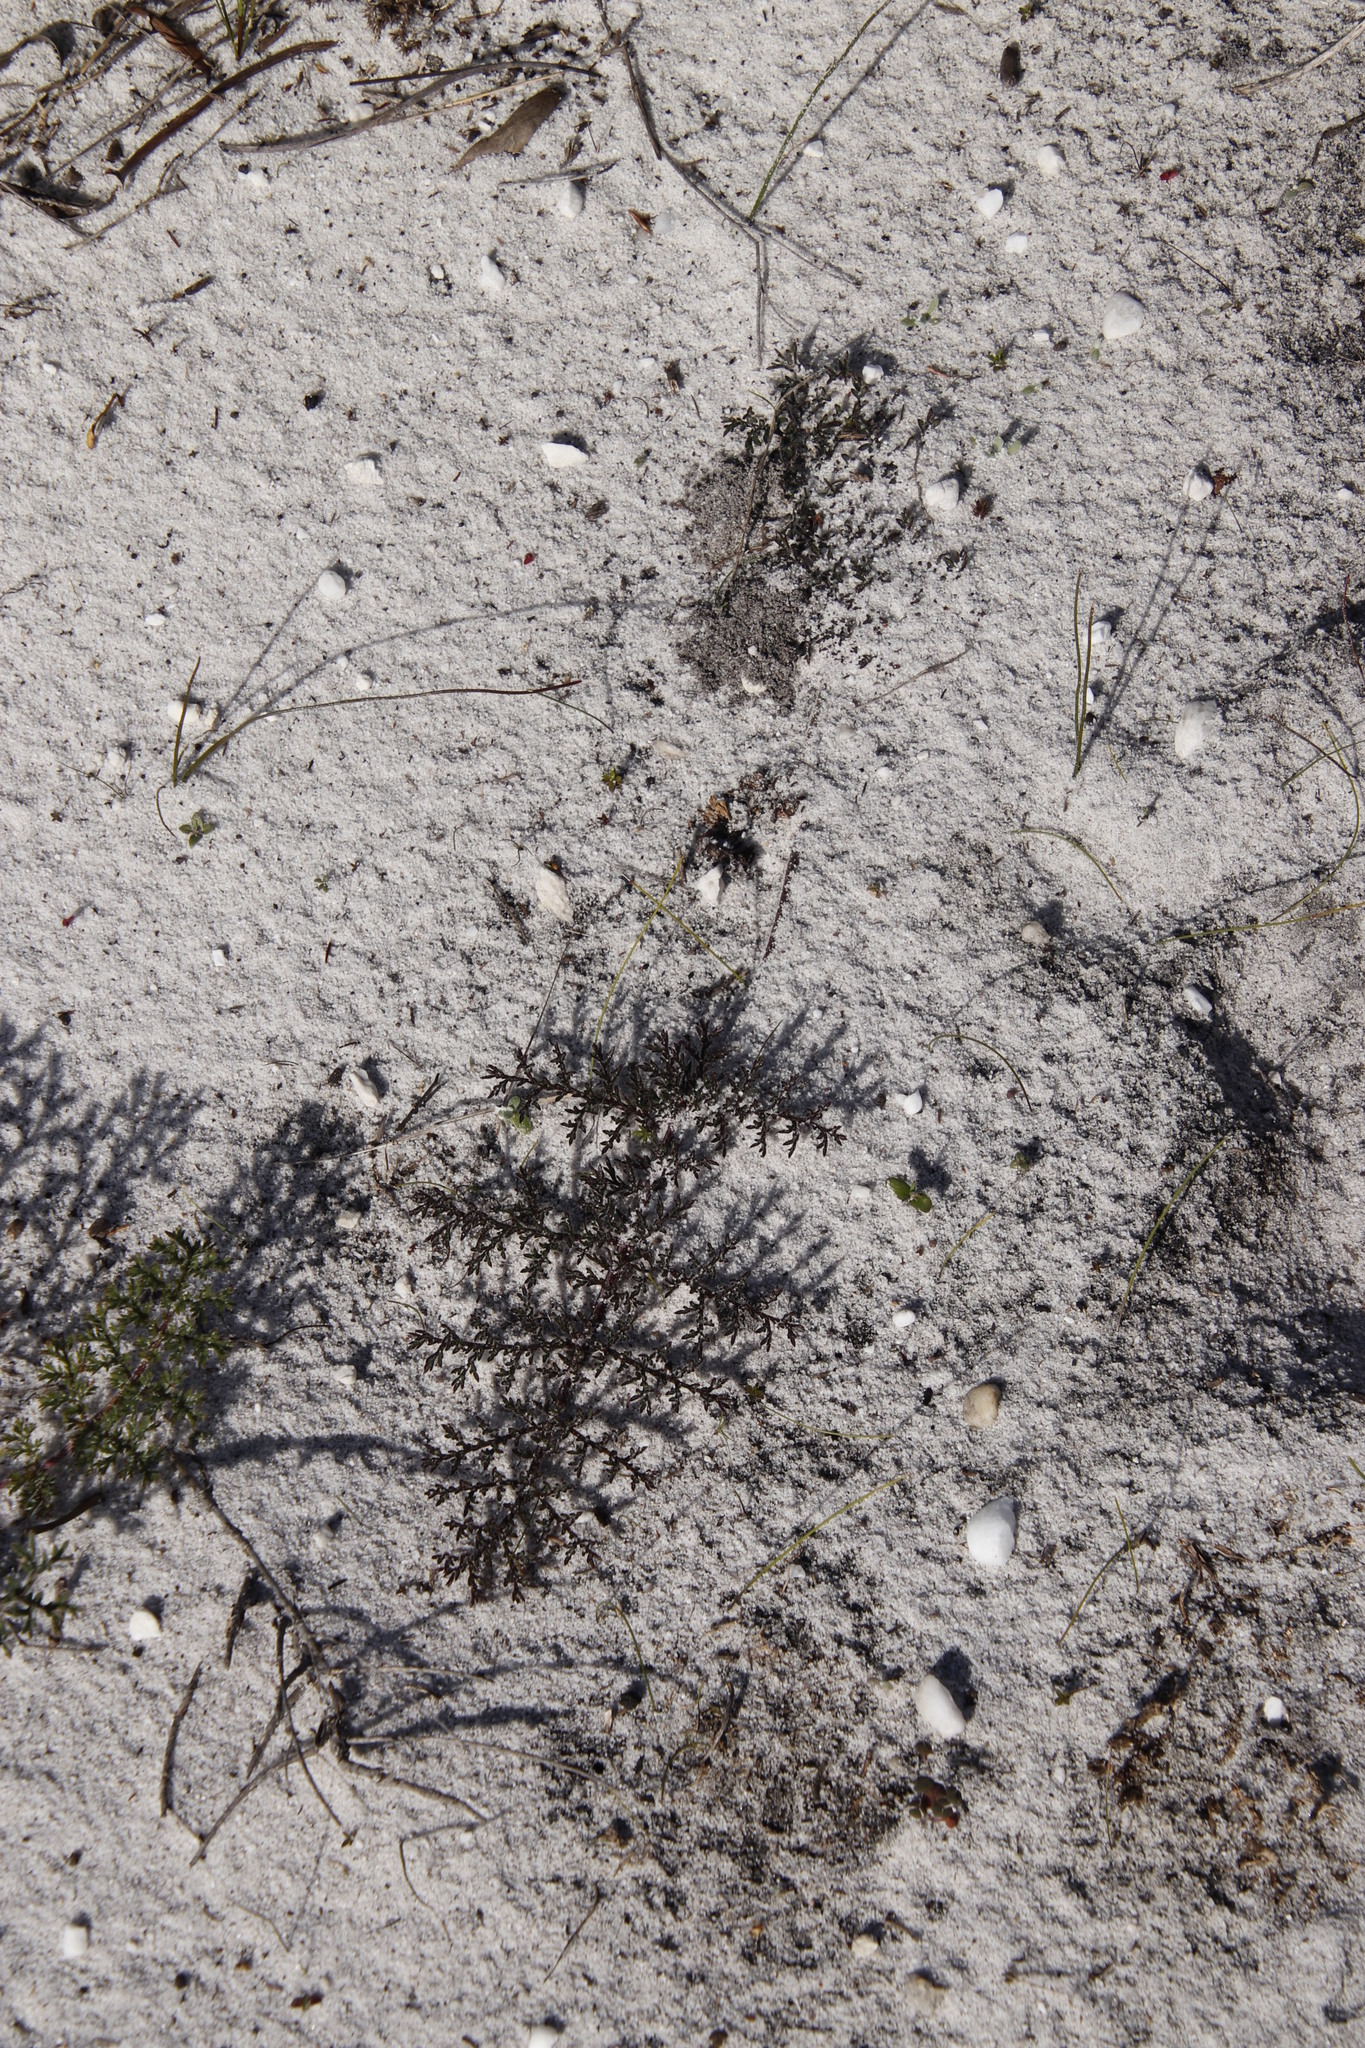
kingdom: Plantae
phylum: Tracheophyta
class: Magnoliopsida
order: Geraniales
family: Geraniaceae
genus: Pelargonium
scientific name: Pelargonium triste
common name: Night-scent pelargonium
